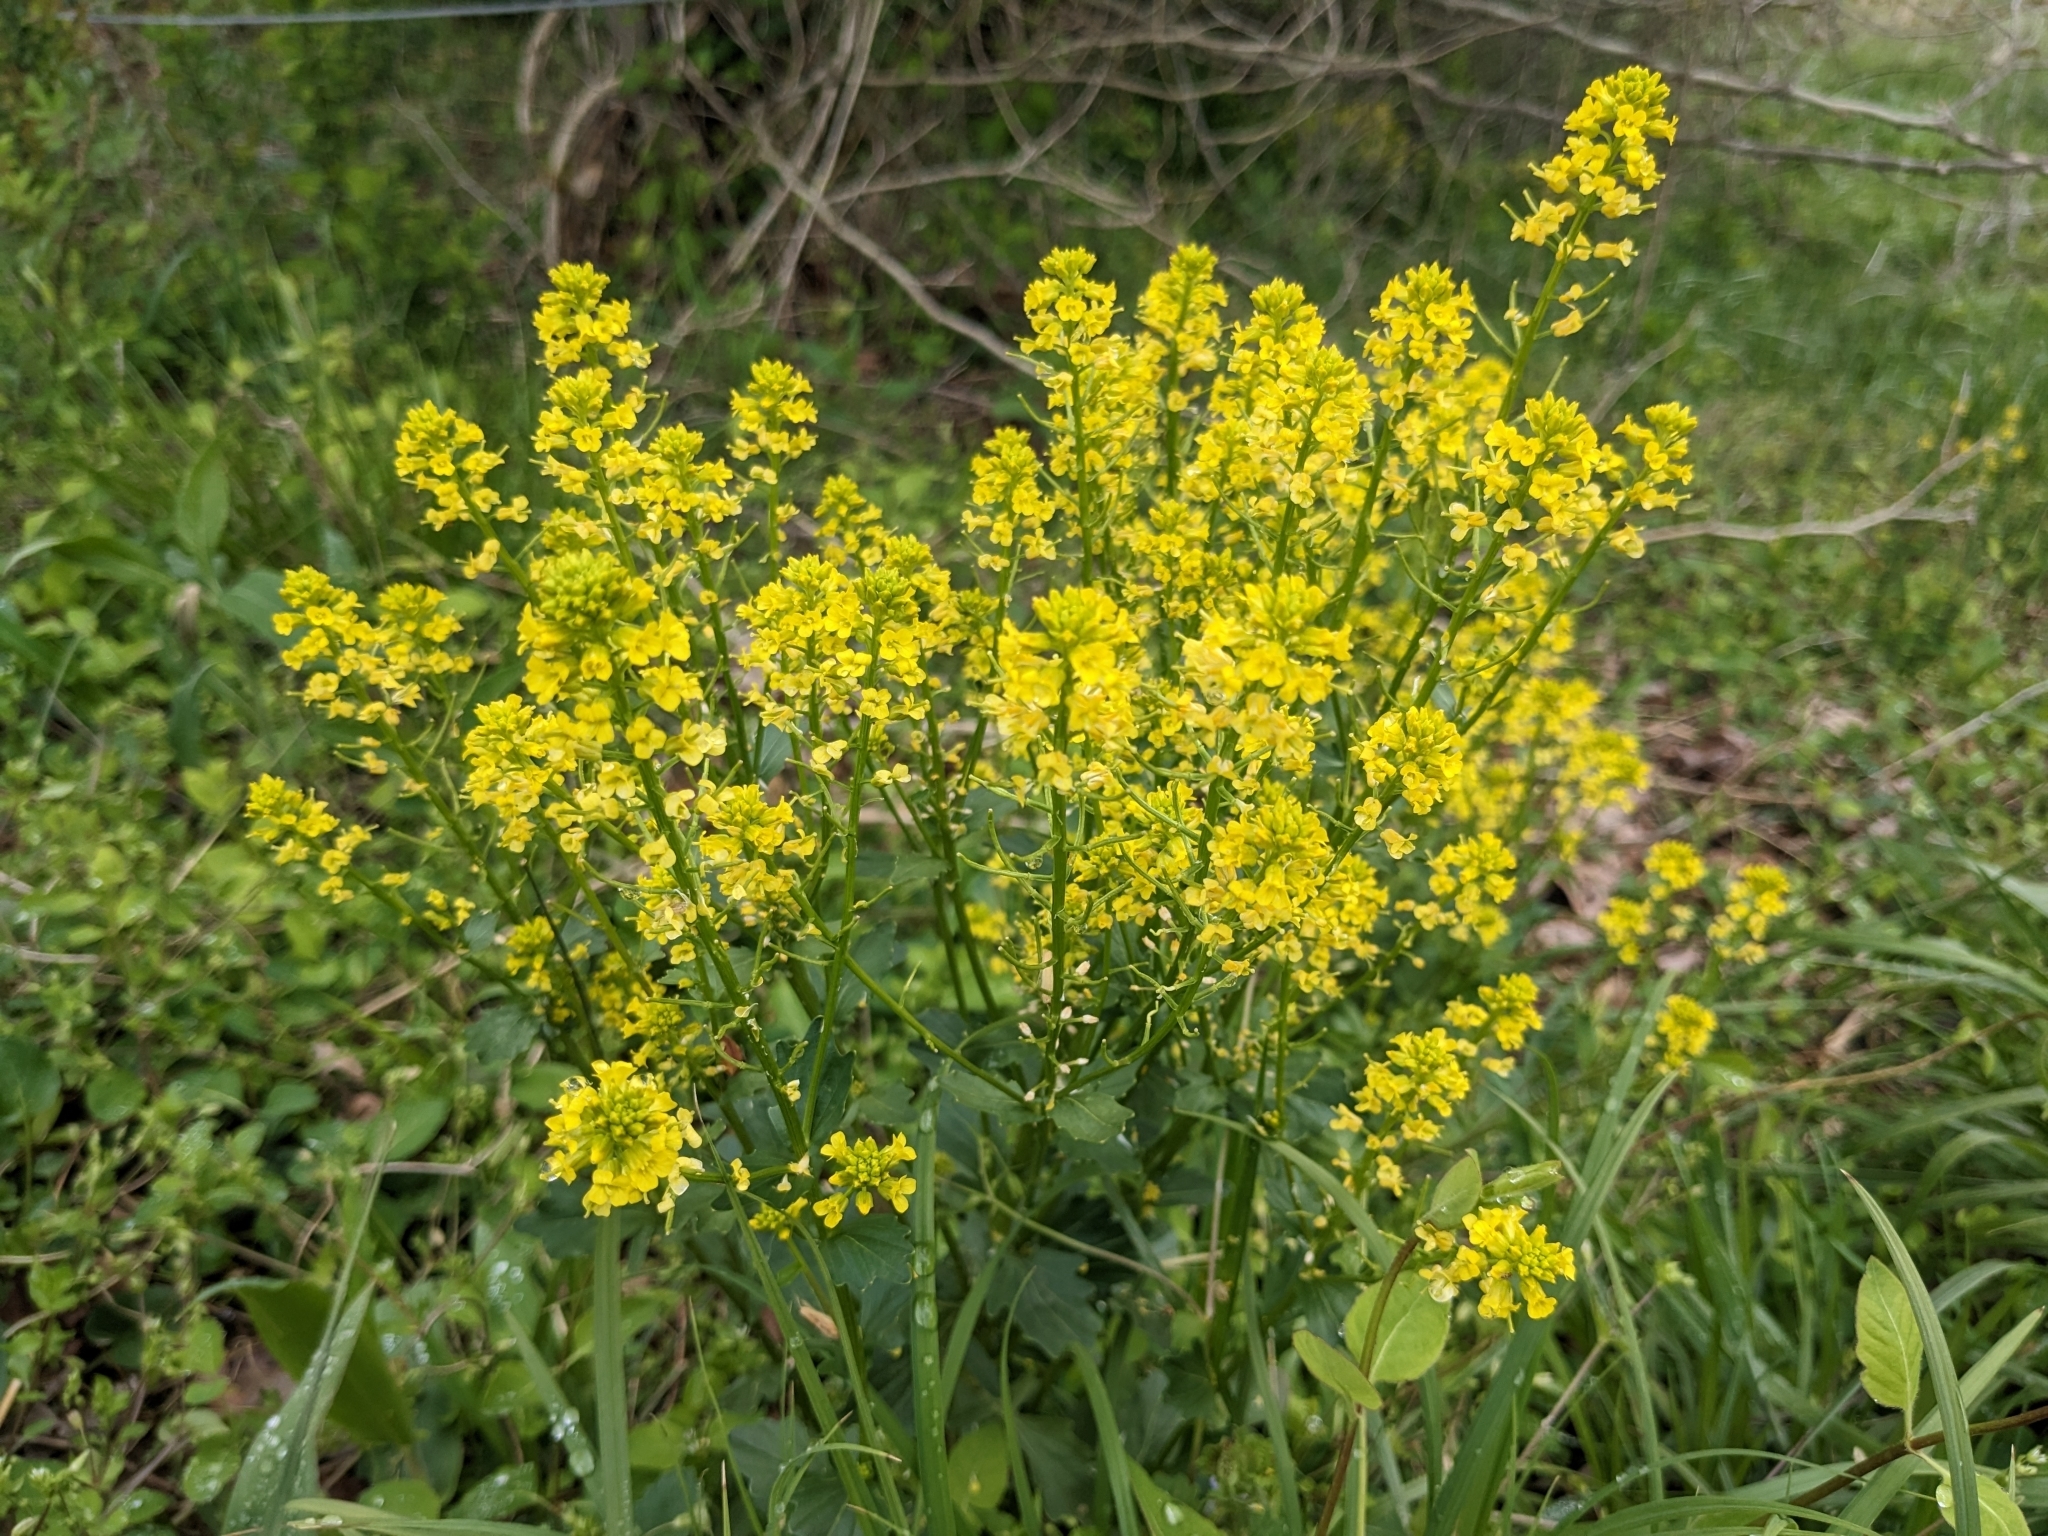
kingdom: Plantae
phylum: Tracheophyta
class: Magnoliopsida
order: Brassicales
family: Brassicaceae
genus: Barbarea
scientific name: Barbarea vulgaris
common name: Cressy-greens
